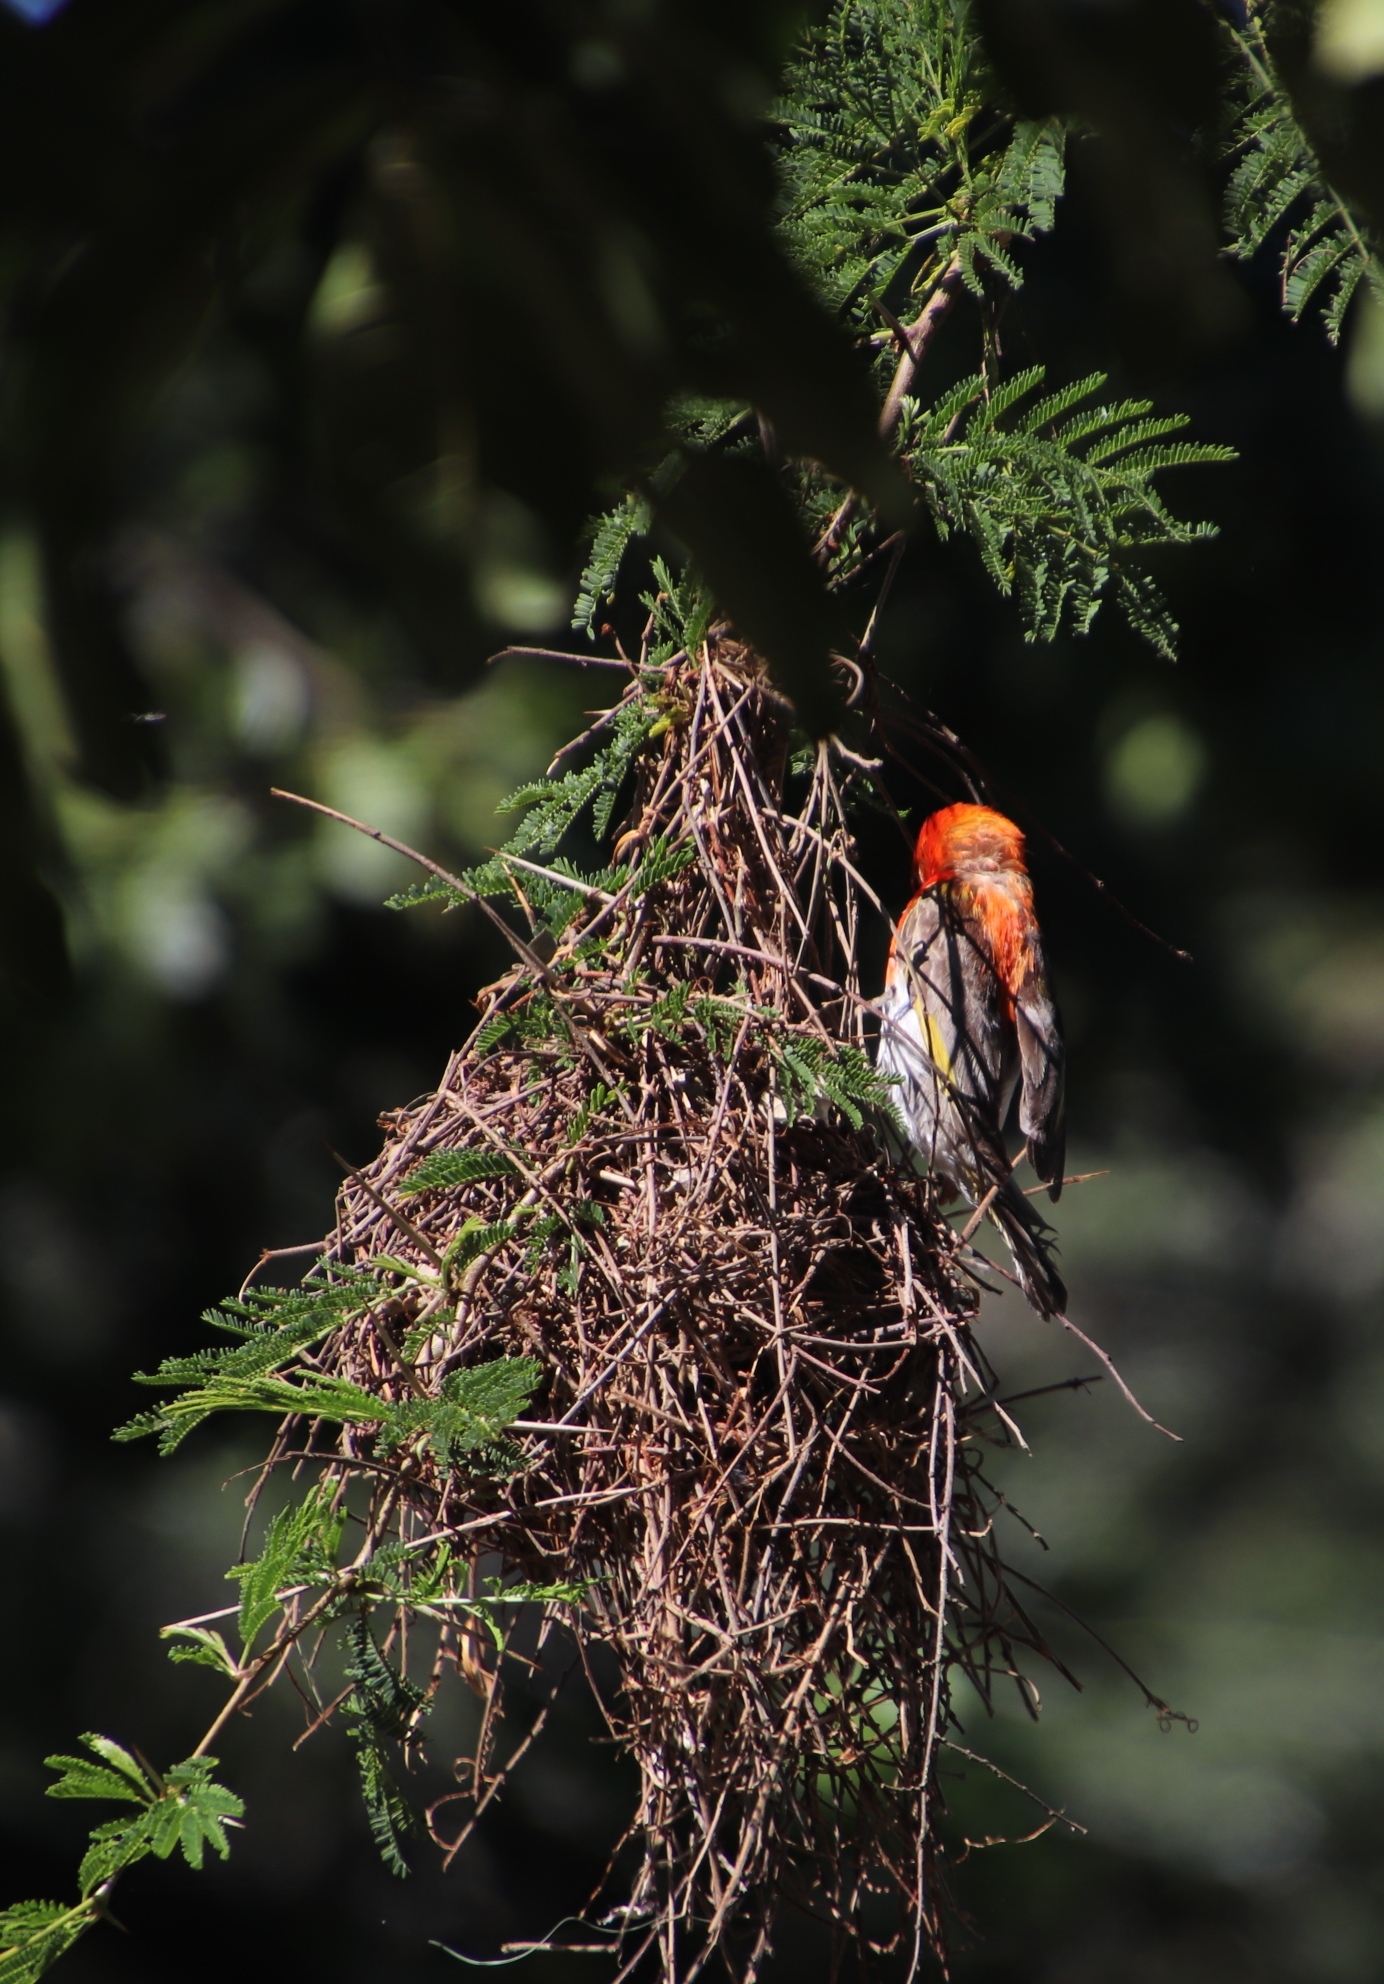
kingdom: Animalia
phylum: Chordata
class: Aves
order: Passeriformes
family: Ploceidae
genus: Anaplectes
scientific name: Anaplectes rubriceps
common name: Red-headed weaver
